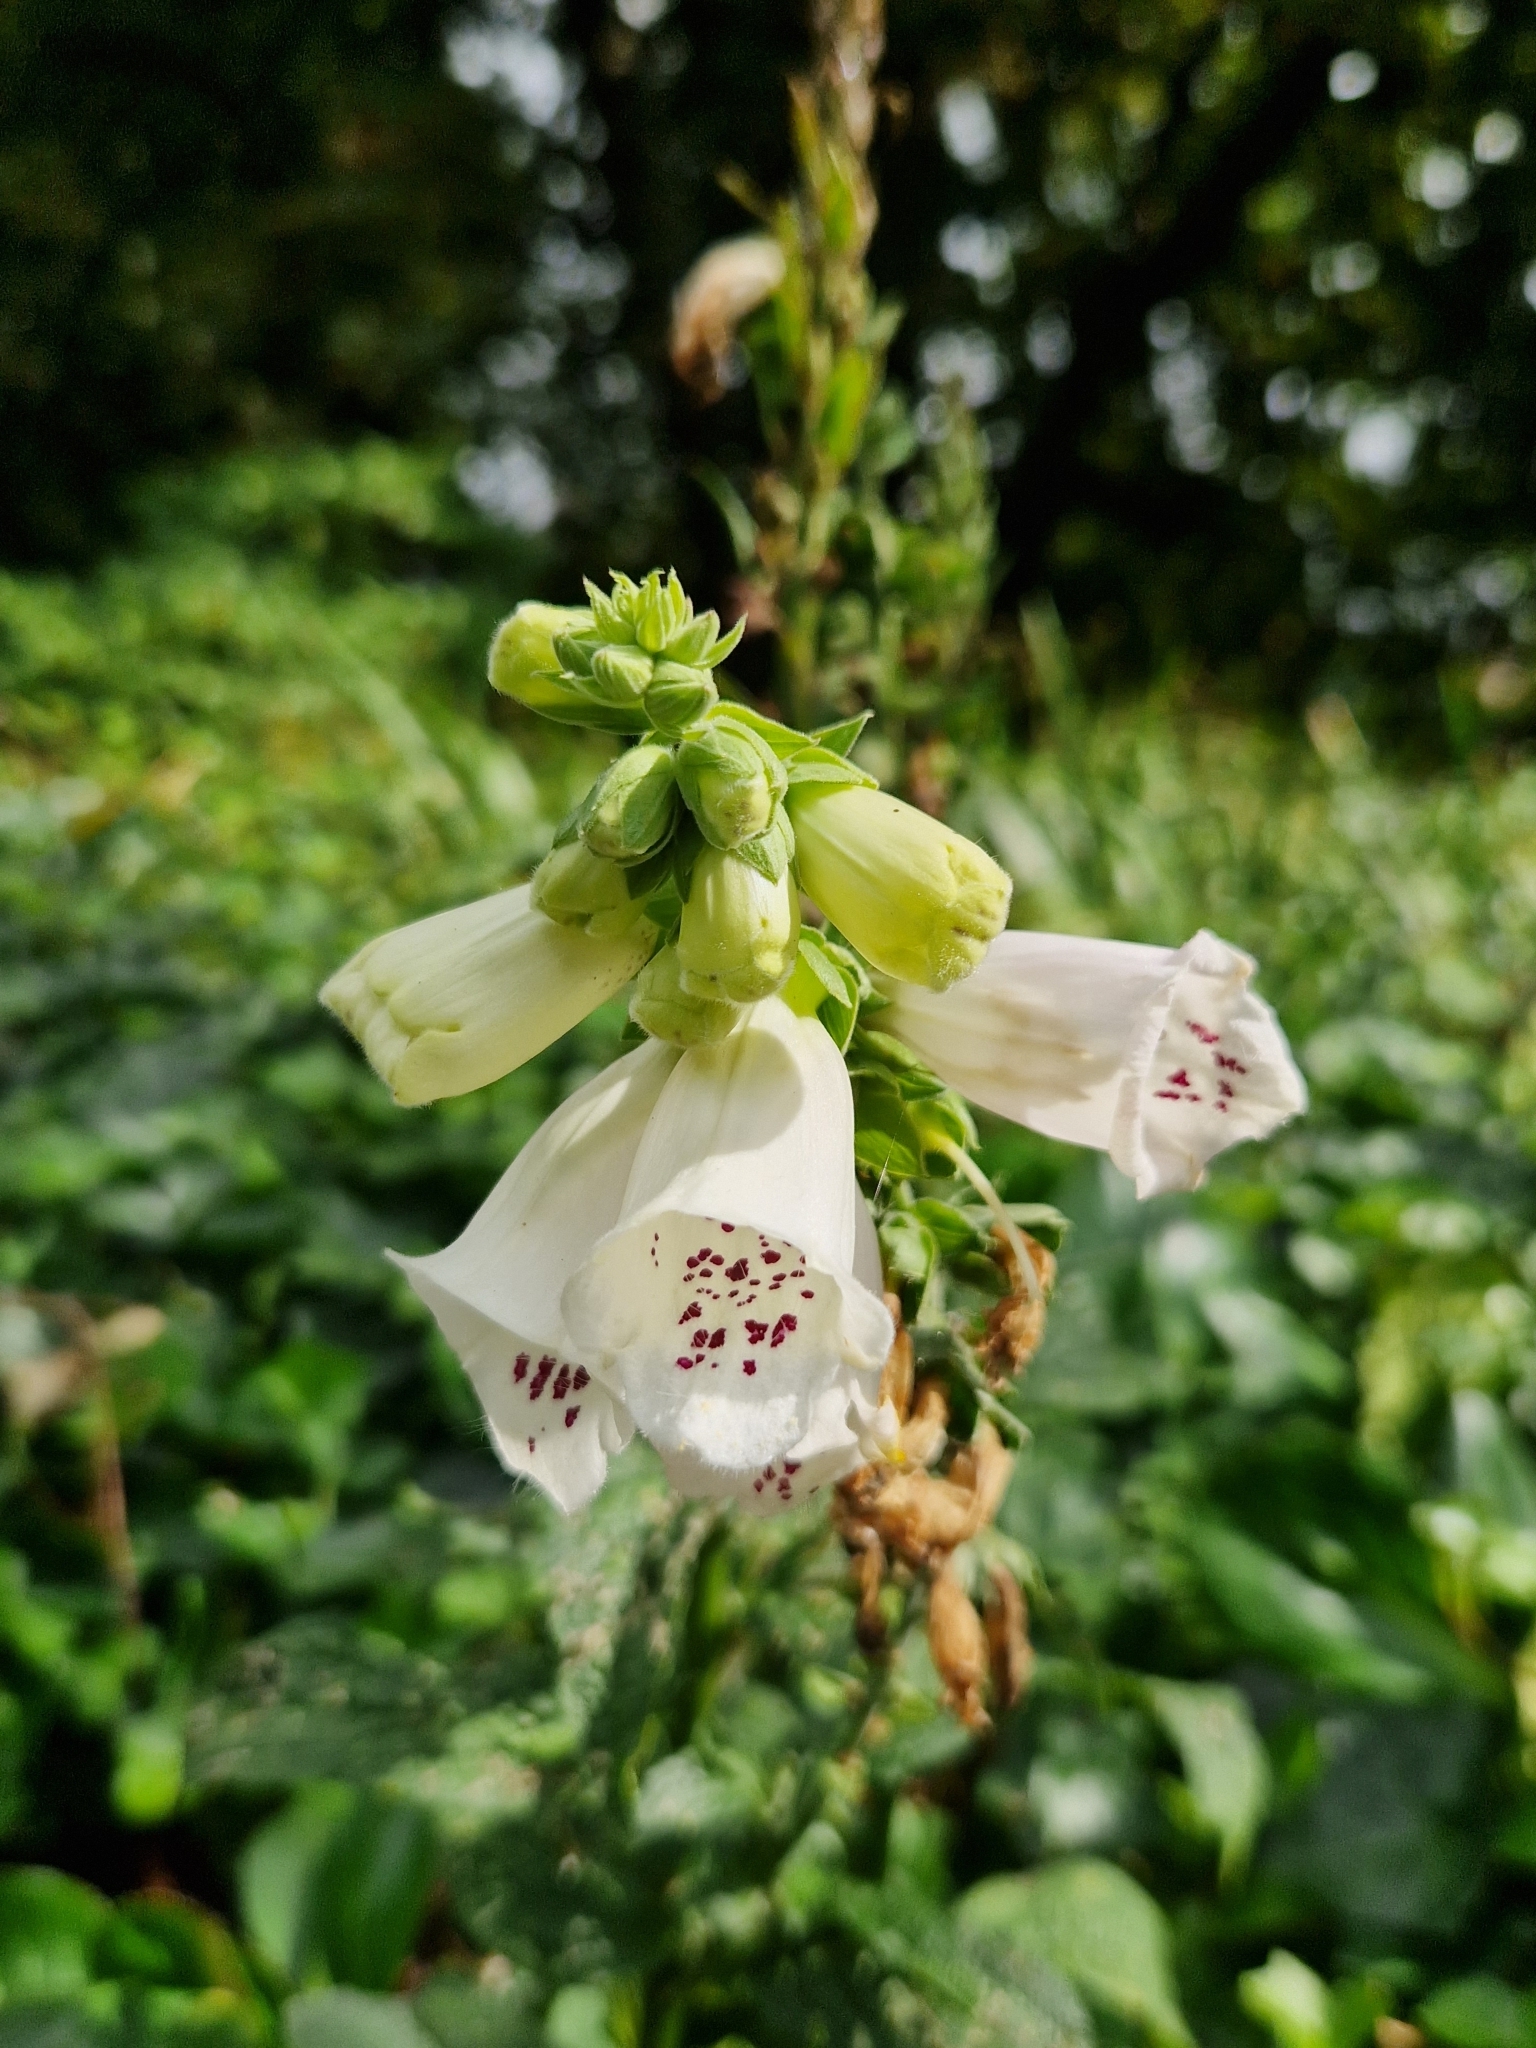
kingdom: Plantae
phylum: Tracheophyta
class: Magnoliopsida
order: Lamiales
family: Plantaginaceae
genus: Digitalis
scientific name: Digitalis purpurea
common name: Foxglove
